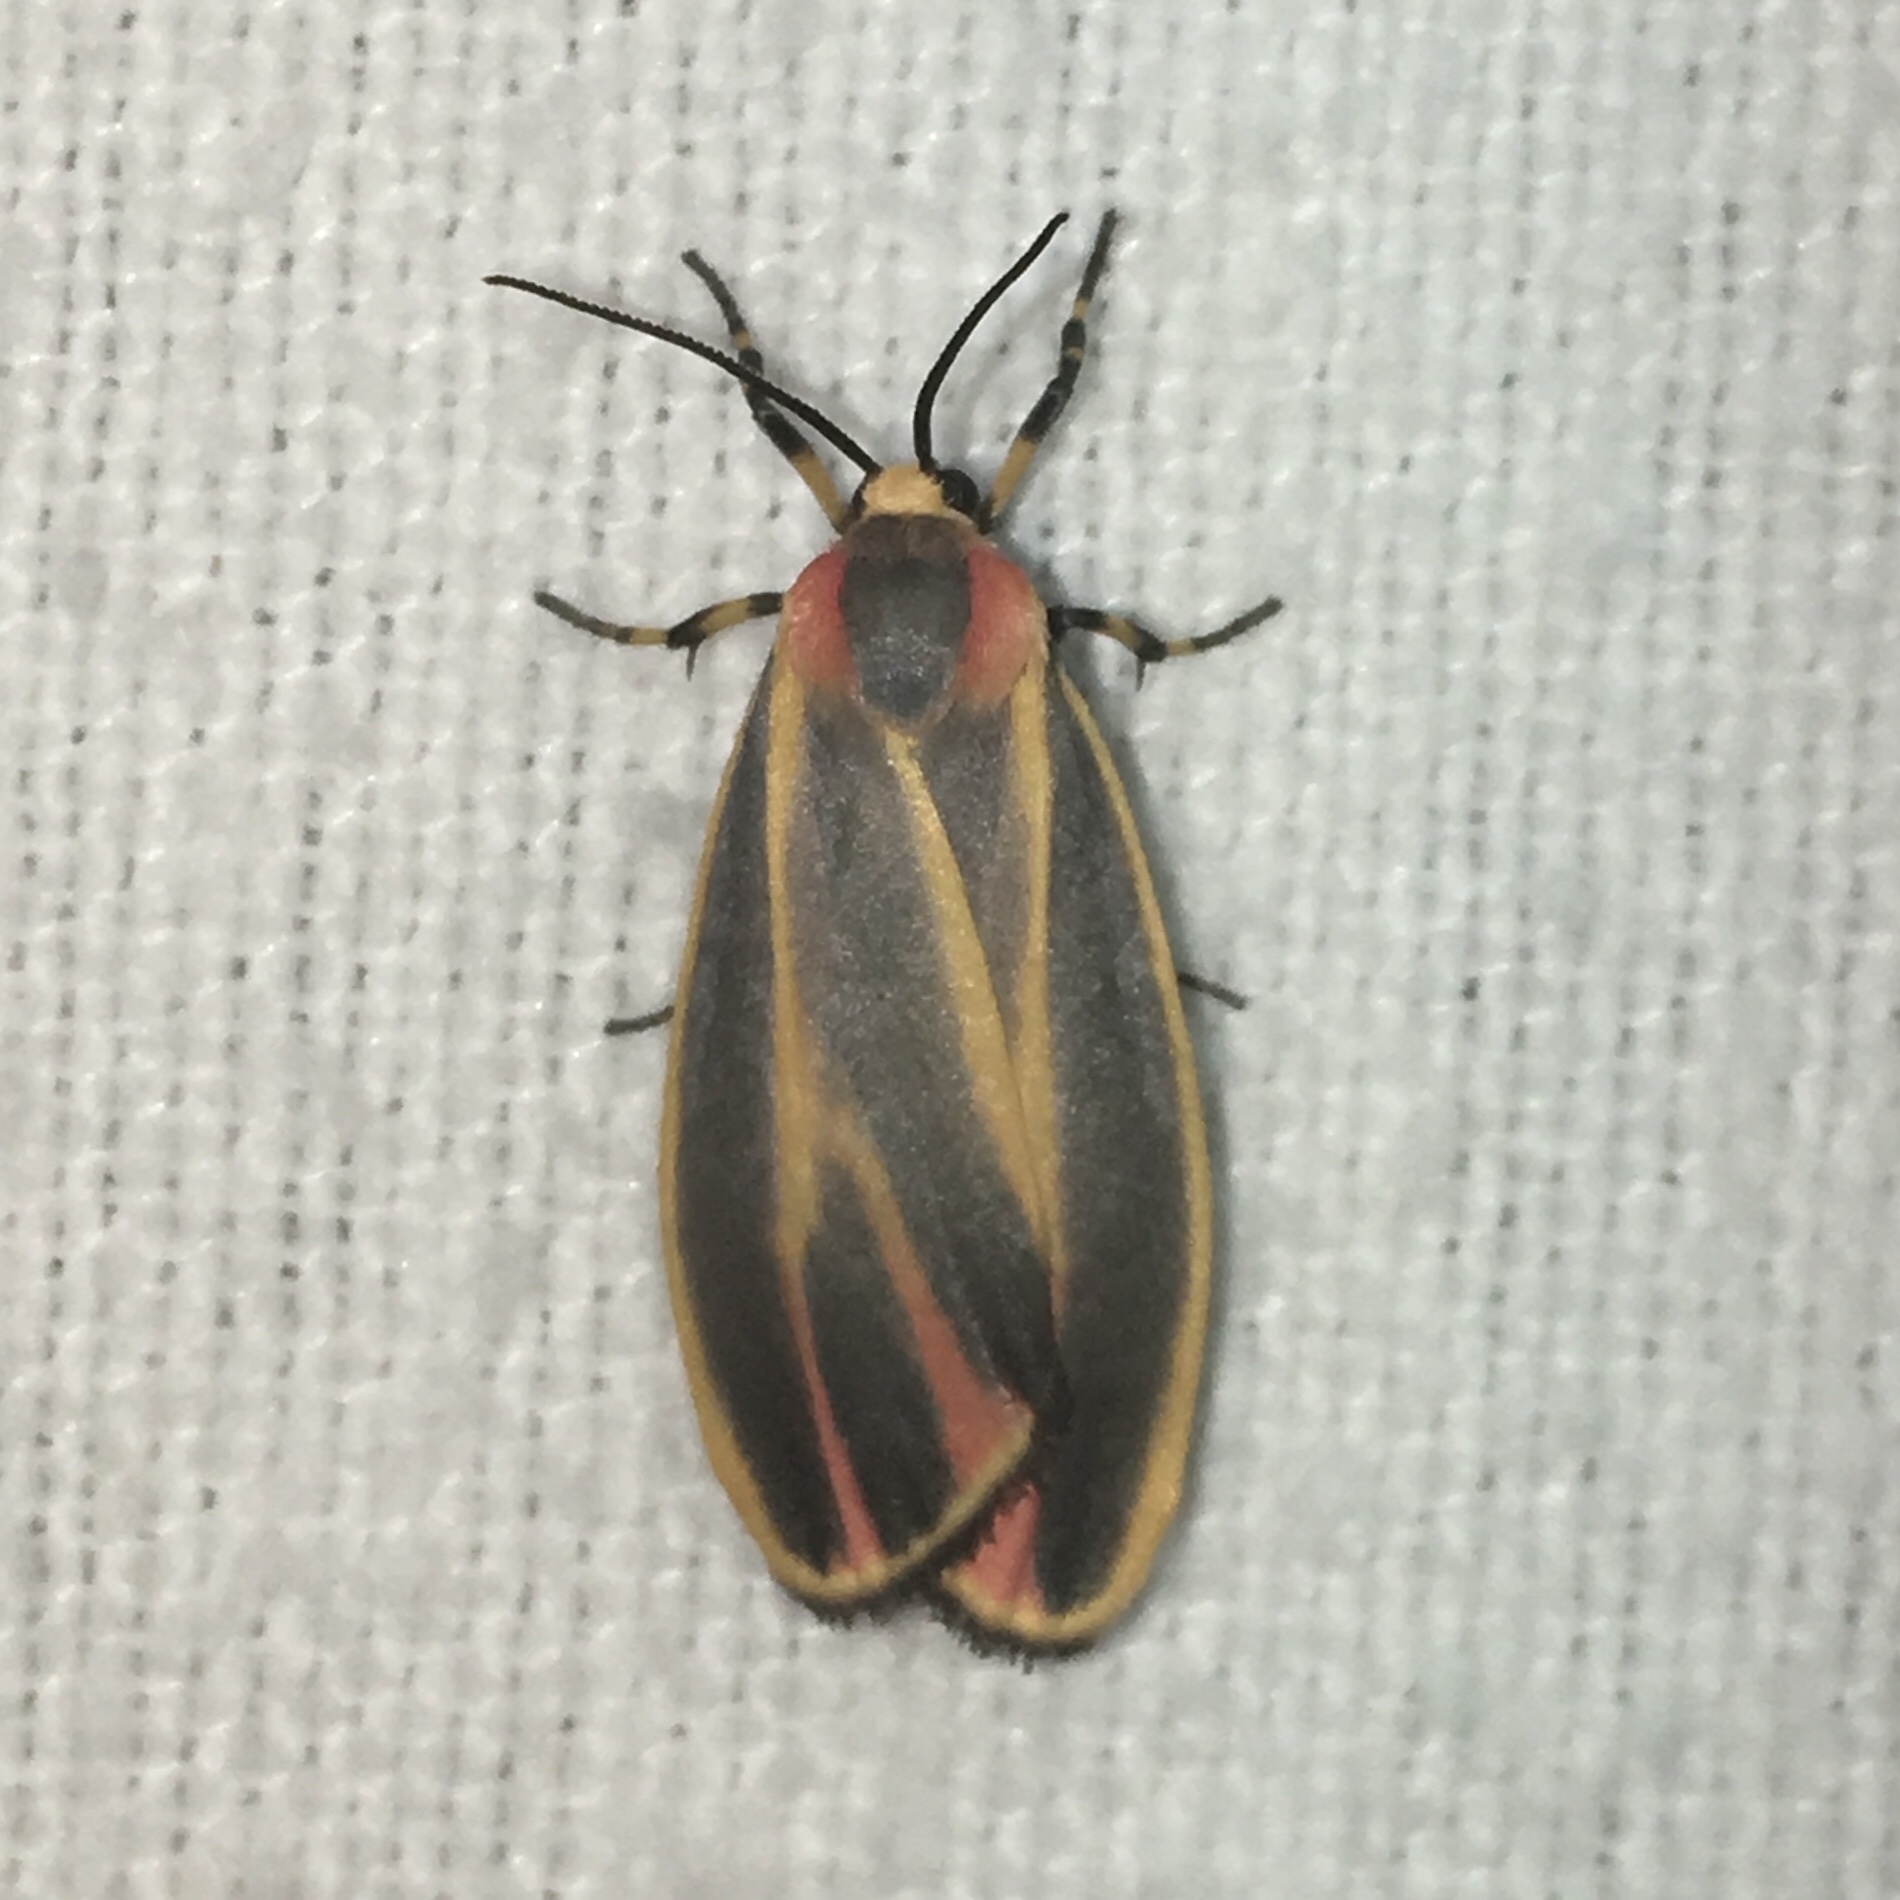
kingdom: Animalia
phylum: Arthropoda
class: Insecta
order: Lepidoptera
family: Erebidae
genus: Hypoprepia
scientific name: Hypoprepia fucosa
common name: Painted lichen moth
